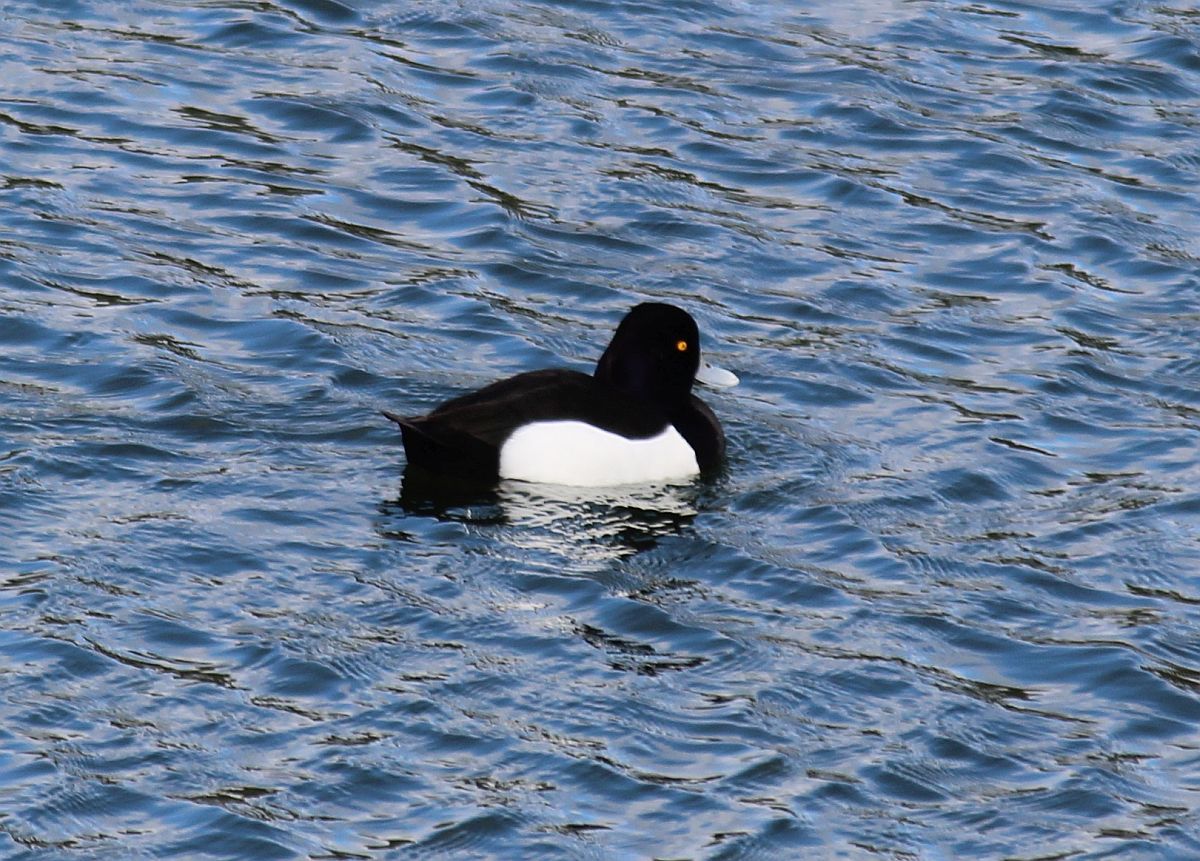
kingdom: Animalia
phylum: Chordata
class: Aves
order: Anseriformes
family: Anatidae
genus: Aythya
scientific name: Aythya fuligula
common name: Tufted duck
